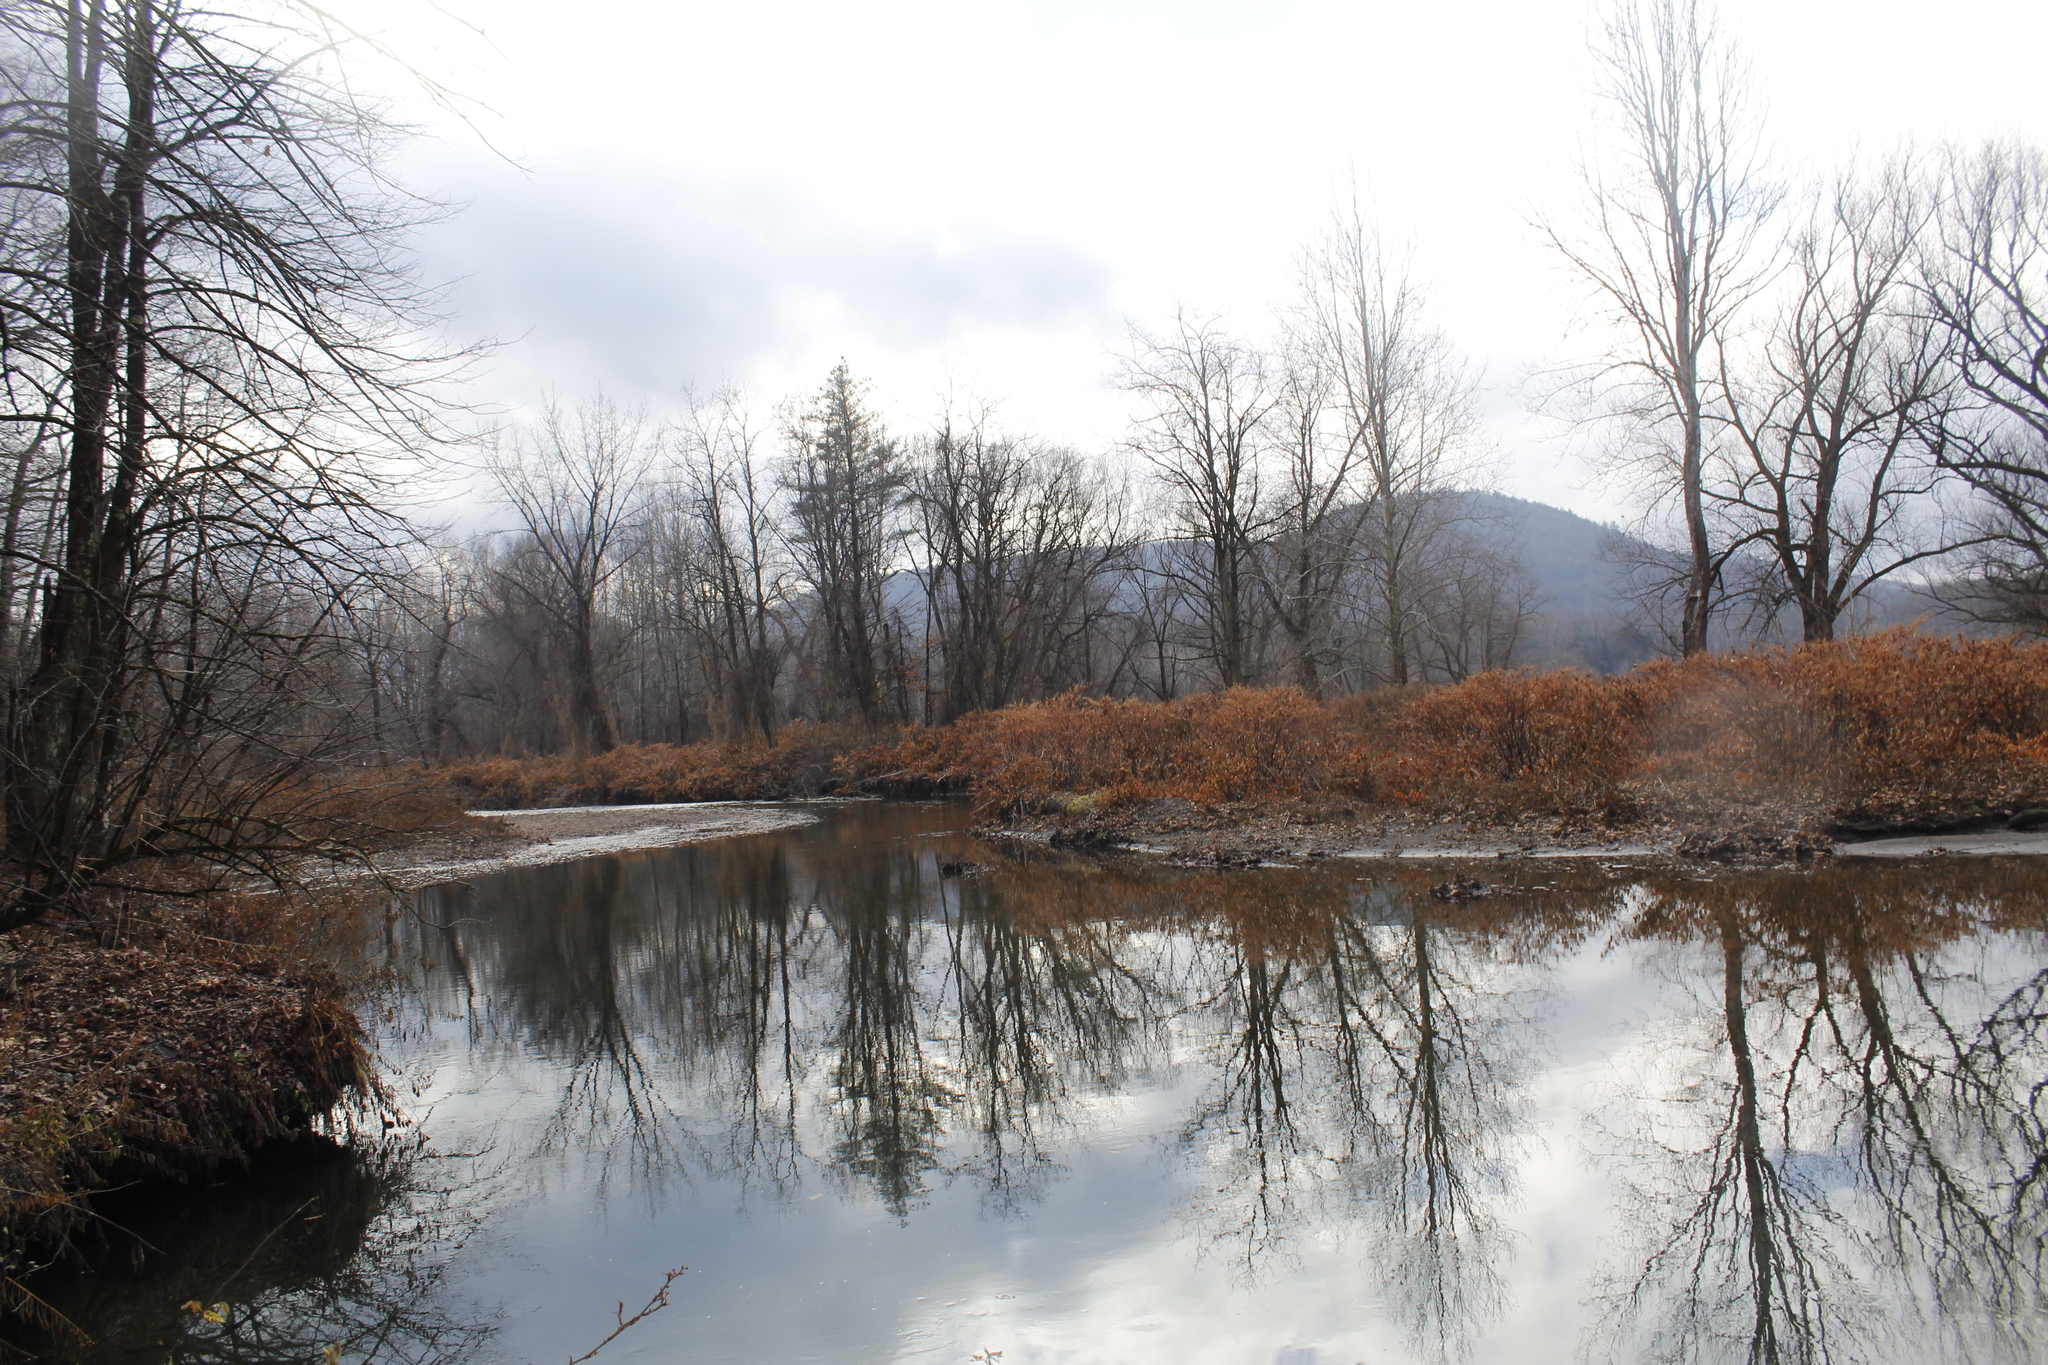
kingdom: Plantae
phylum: Tracheophyta
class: Magnoliopsida
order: Caryophyllales
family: Polygonaceae
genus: Reynoutria
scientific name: Reynoutria japonica
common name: Japanese knotweed
